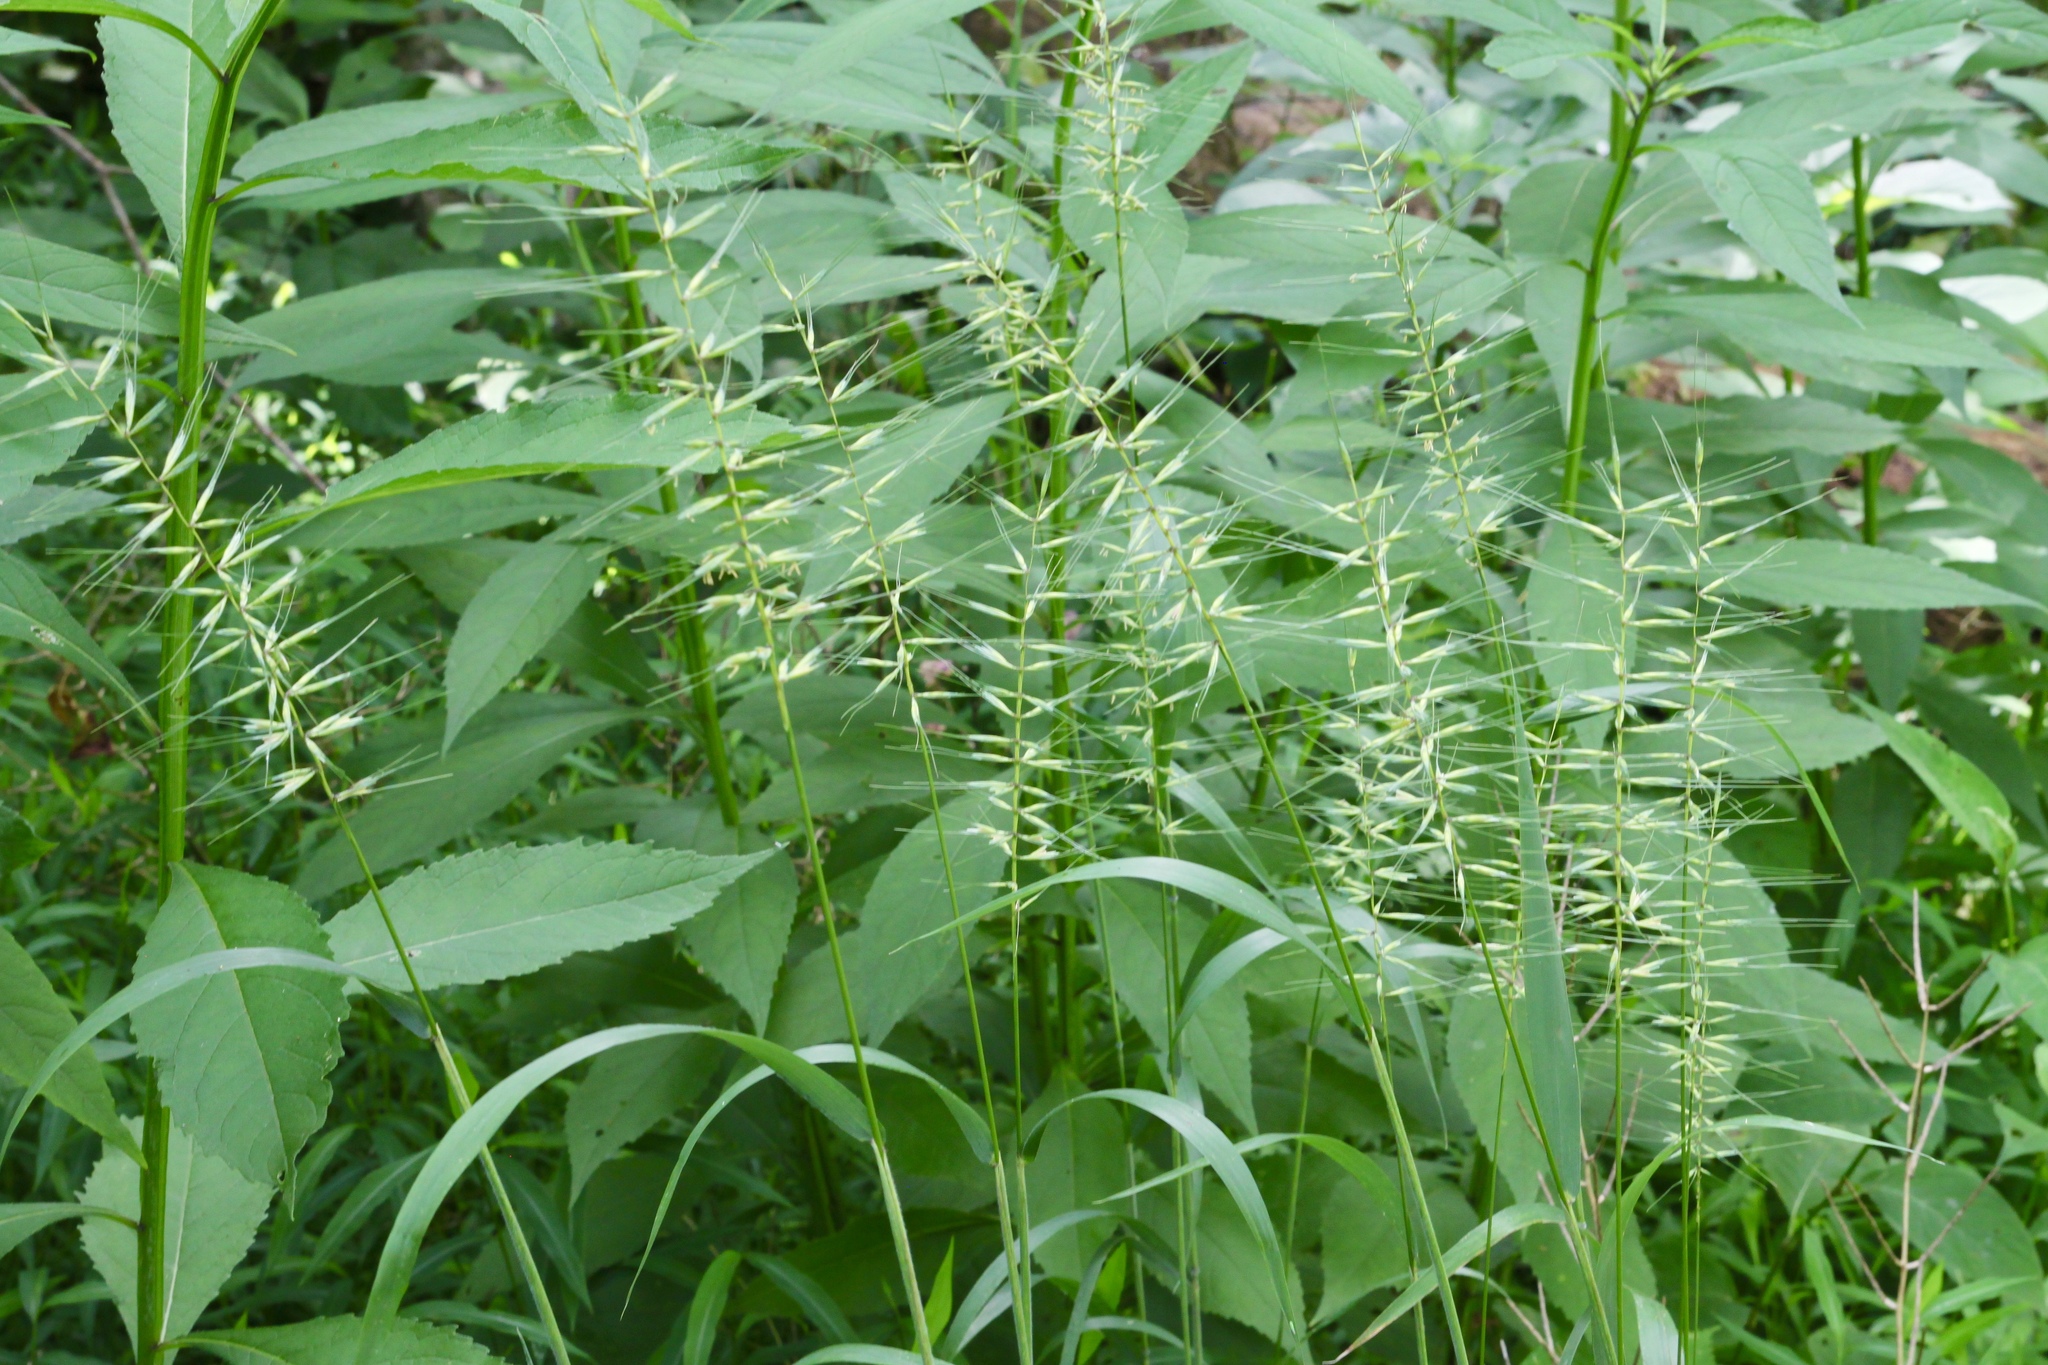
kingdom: Plantae
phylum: Tracheophyta
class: Liliopsida
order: Poales
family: Poaceae
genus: Elymus
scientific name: Elymus hystrix
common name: Bottlebrush grass
